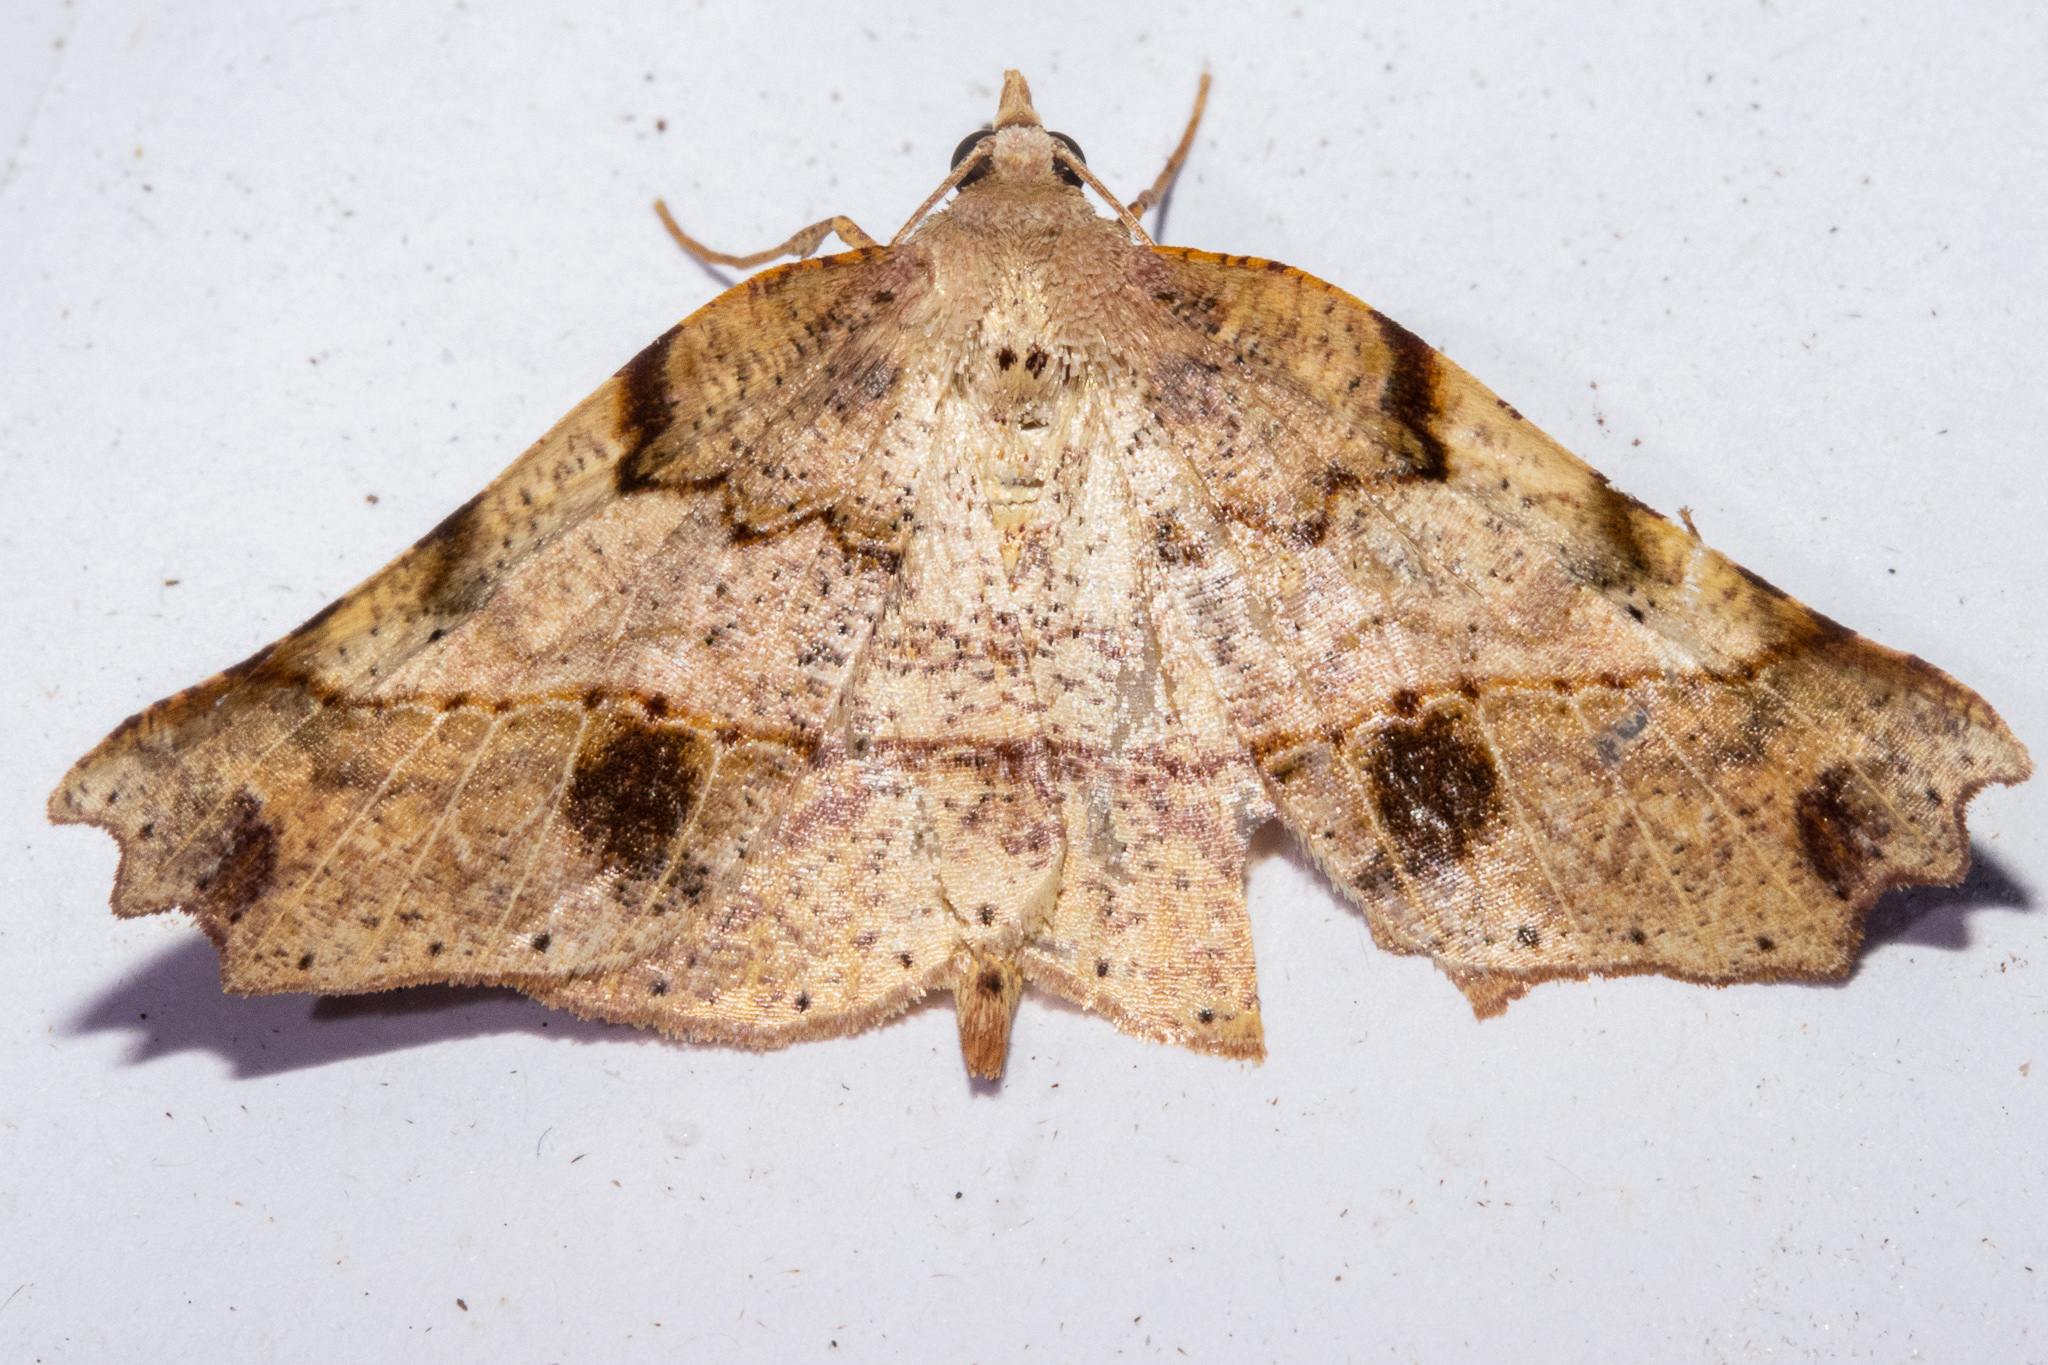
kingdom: Animalia
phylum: Arthropoda
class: Insecta
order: Lepidoptera
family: Geometridae
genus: Ischalis
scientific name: Ischalis gallaria
